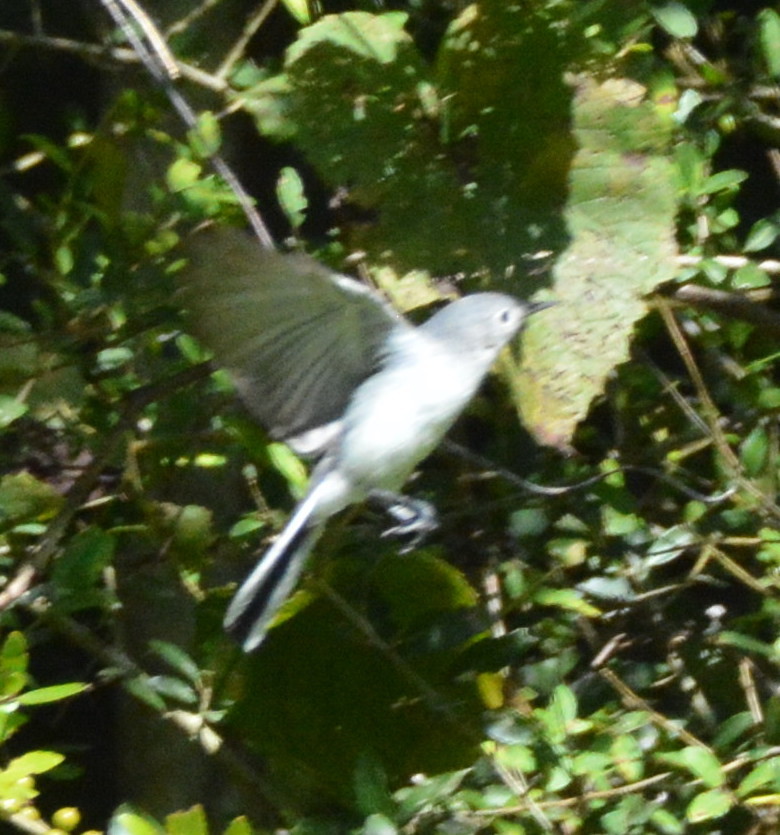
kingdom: Animalia
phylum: Chordata
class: Aves
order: Passeriformes
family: Polioptilidae
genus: Polioptila
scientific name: Polioptila caerulea
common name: Blue-gray gnatcatcher
